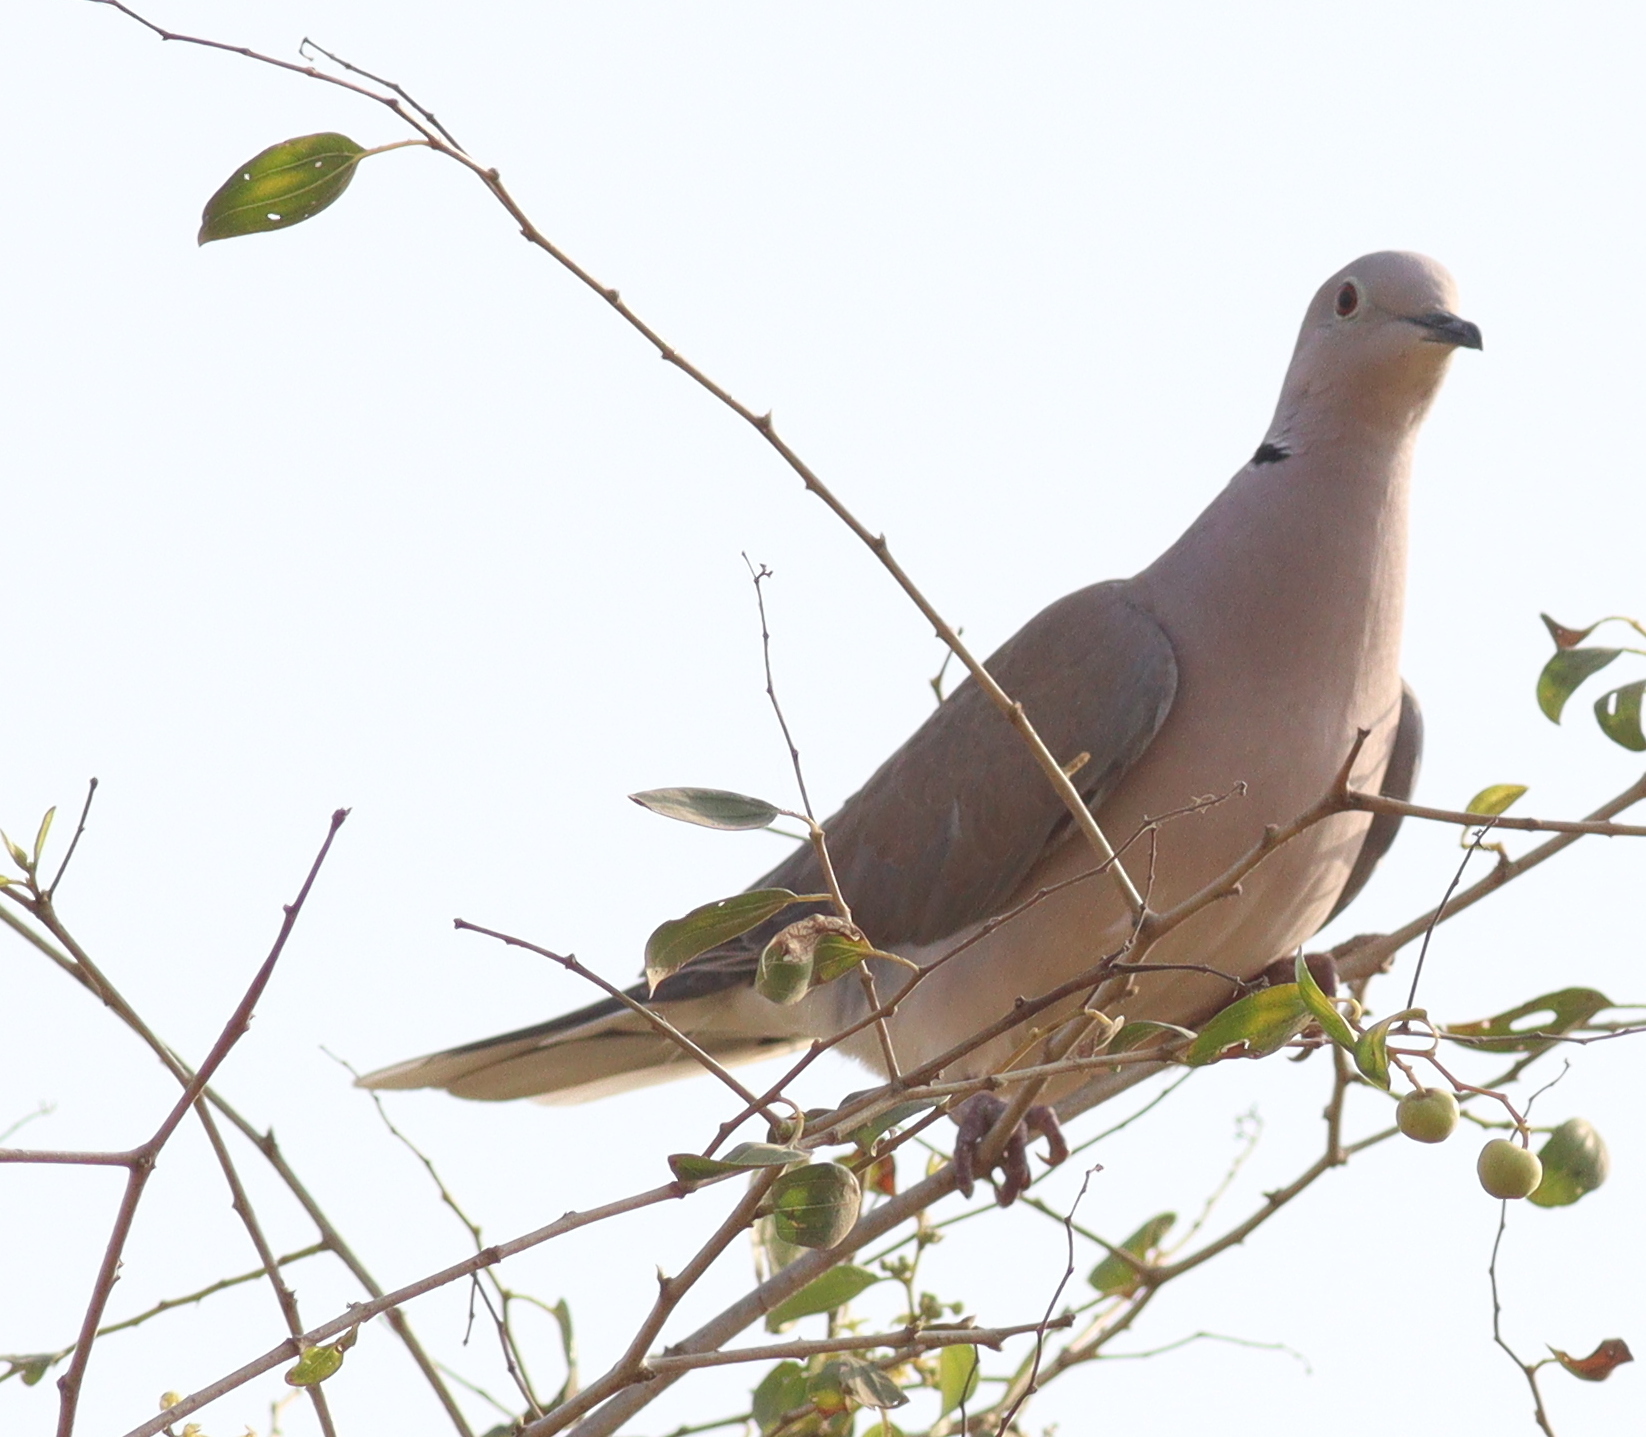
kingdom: Animalia
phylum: Chordata
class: Aves
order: Columbiformes
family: Columbidae
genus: Streptopelia
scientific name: Streptopelia roseogrisea
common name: African collared dove
